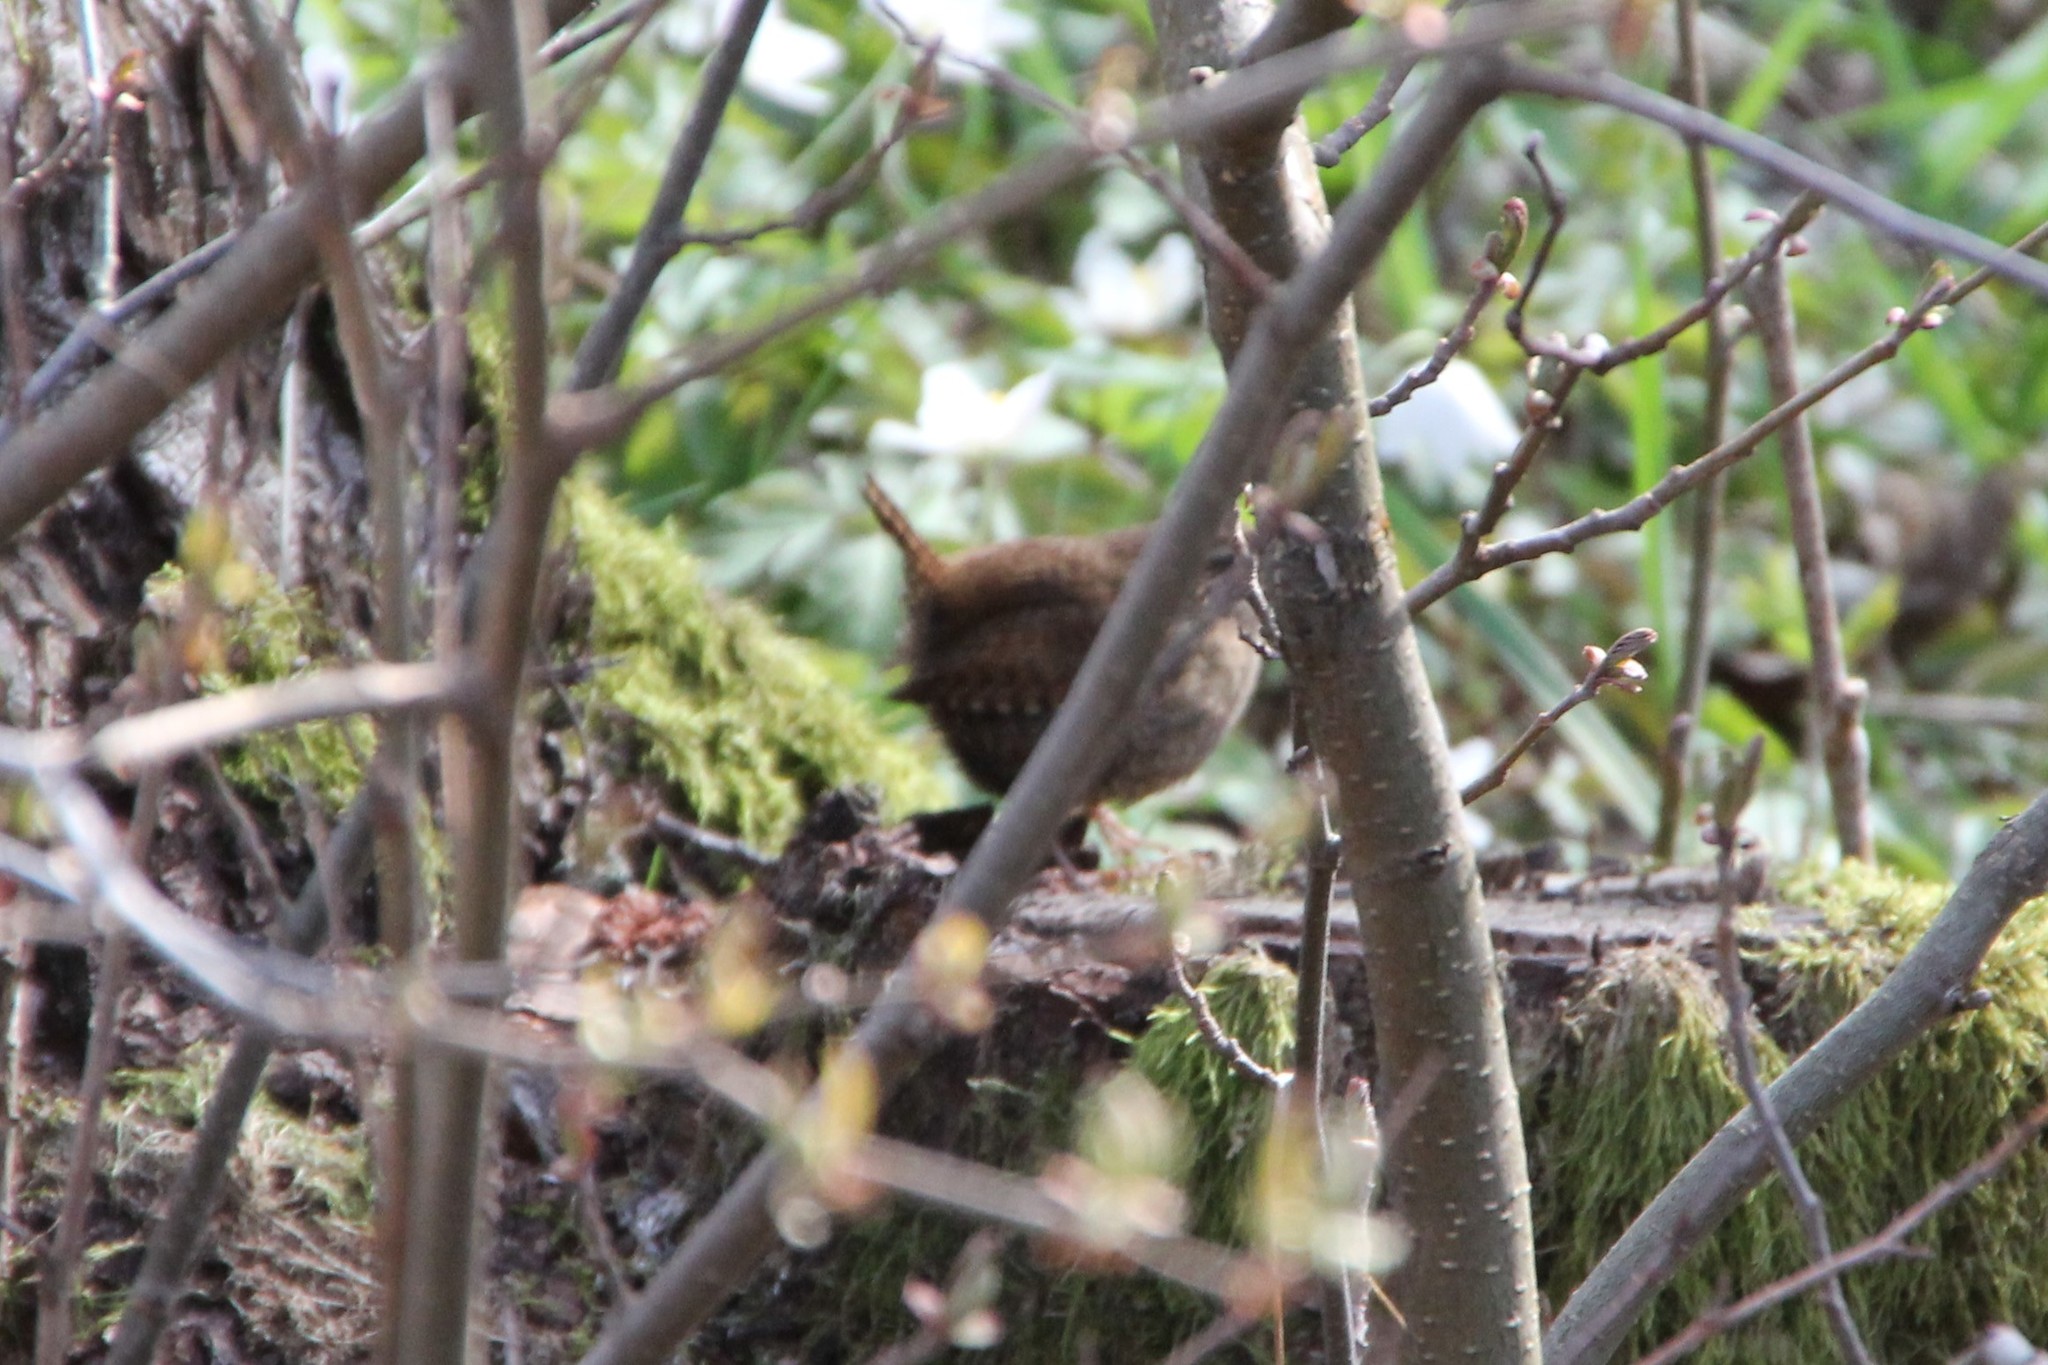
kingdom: Animalia
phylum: Chordata
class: Aves
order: Passeriformes
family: Troglodytidae
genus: Troglodytes
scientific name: Troglodytes troglodytes
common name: Eurasian wren
